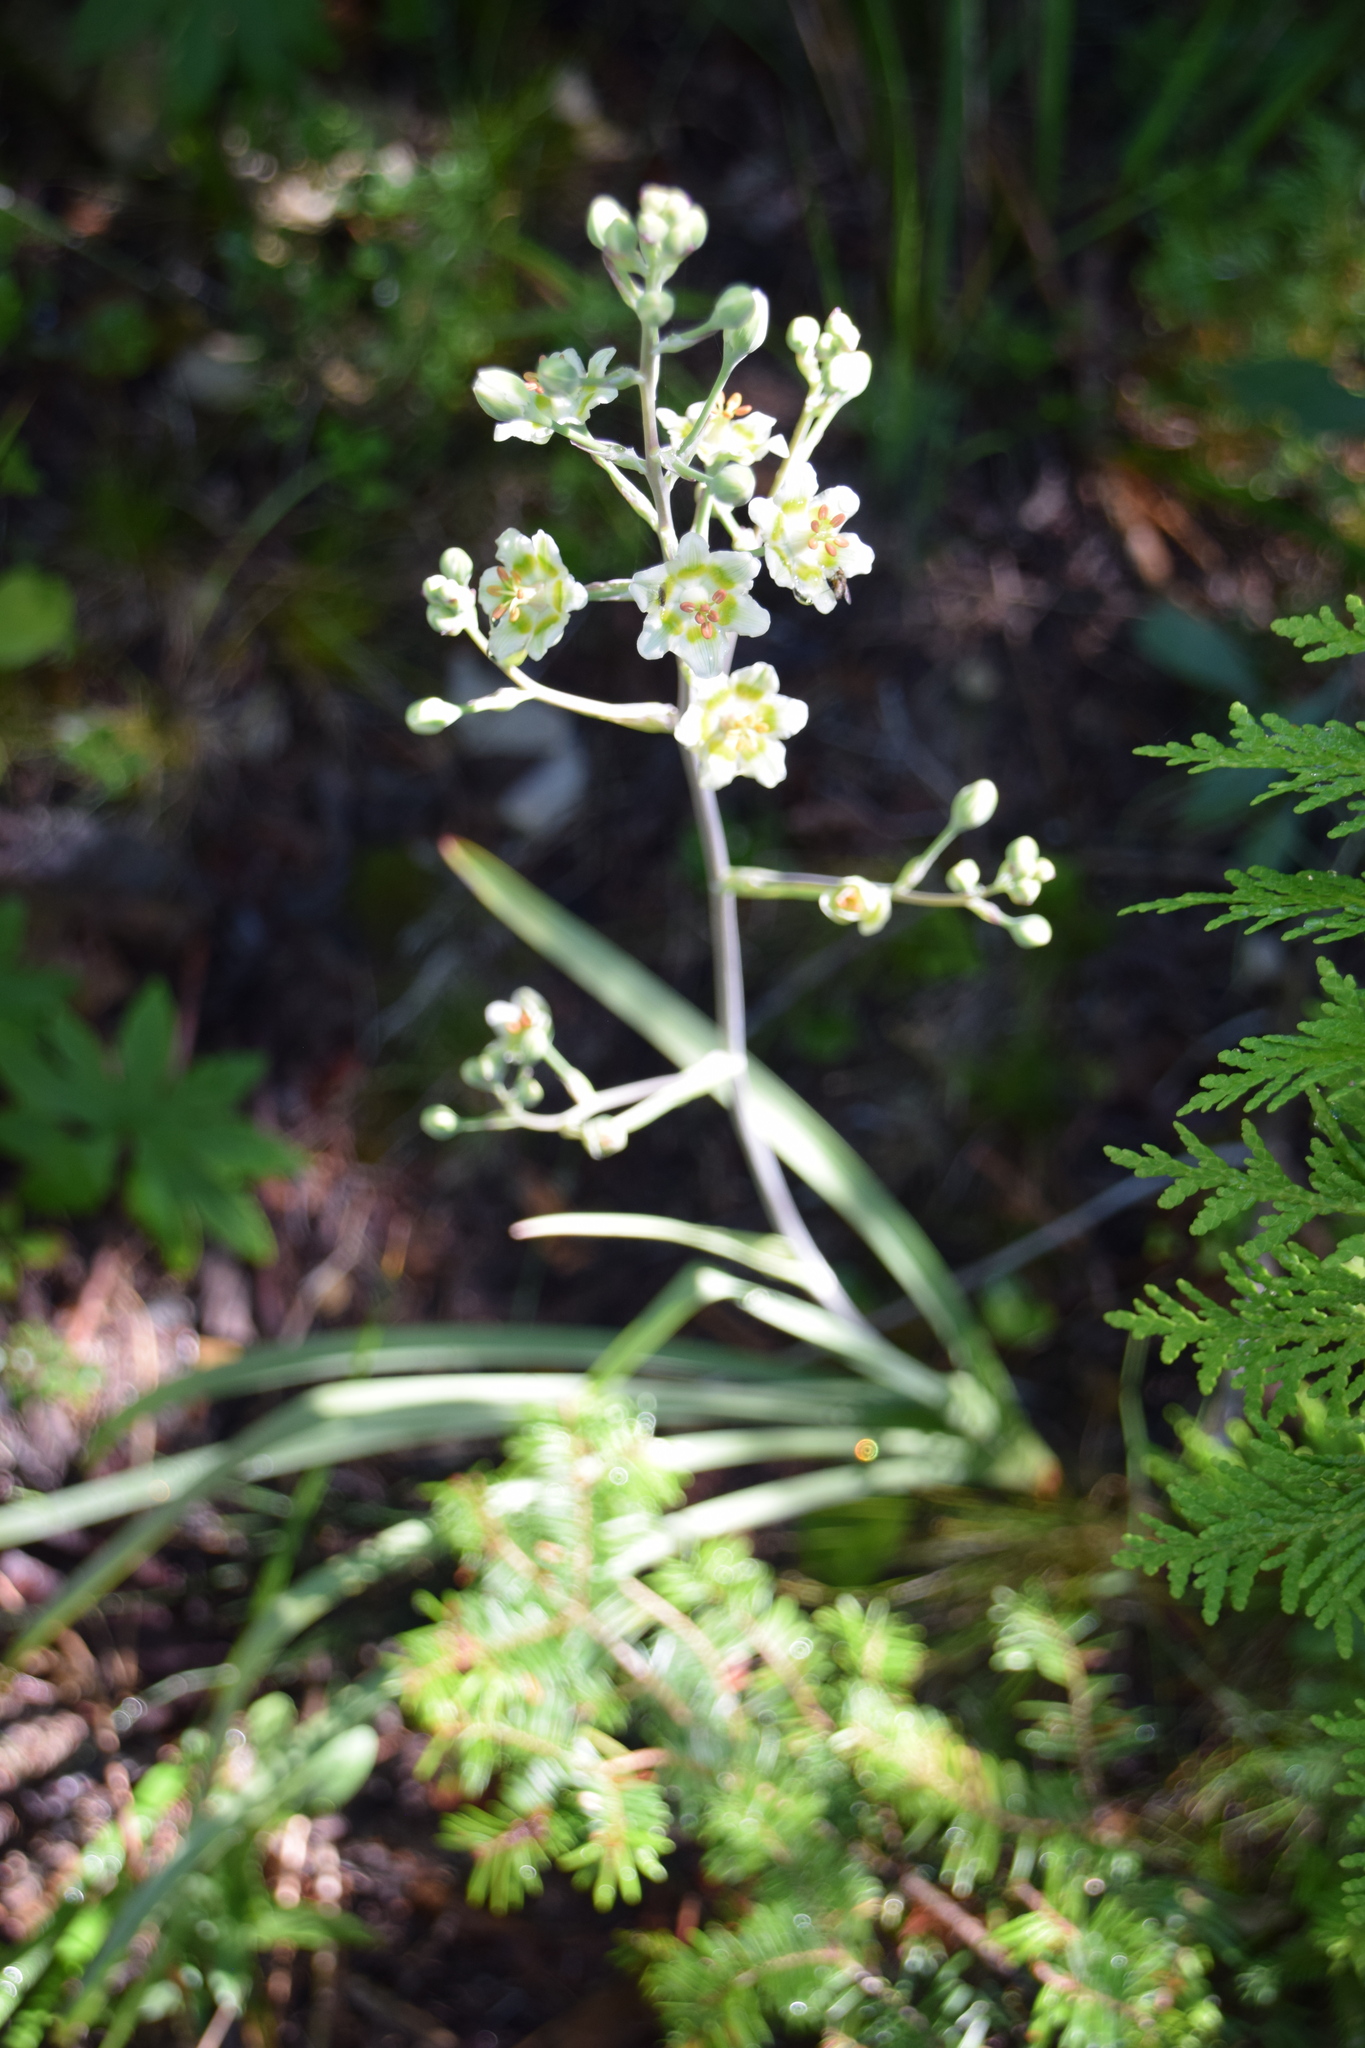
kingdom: Plantae
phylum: Tracheophyta
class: Liliopsida
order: Liliales
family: Melanthiaceae
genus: Anticlea
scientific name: Anticlea elegans
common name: Mountain death camas
